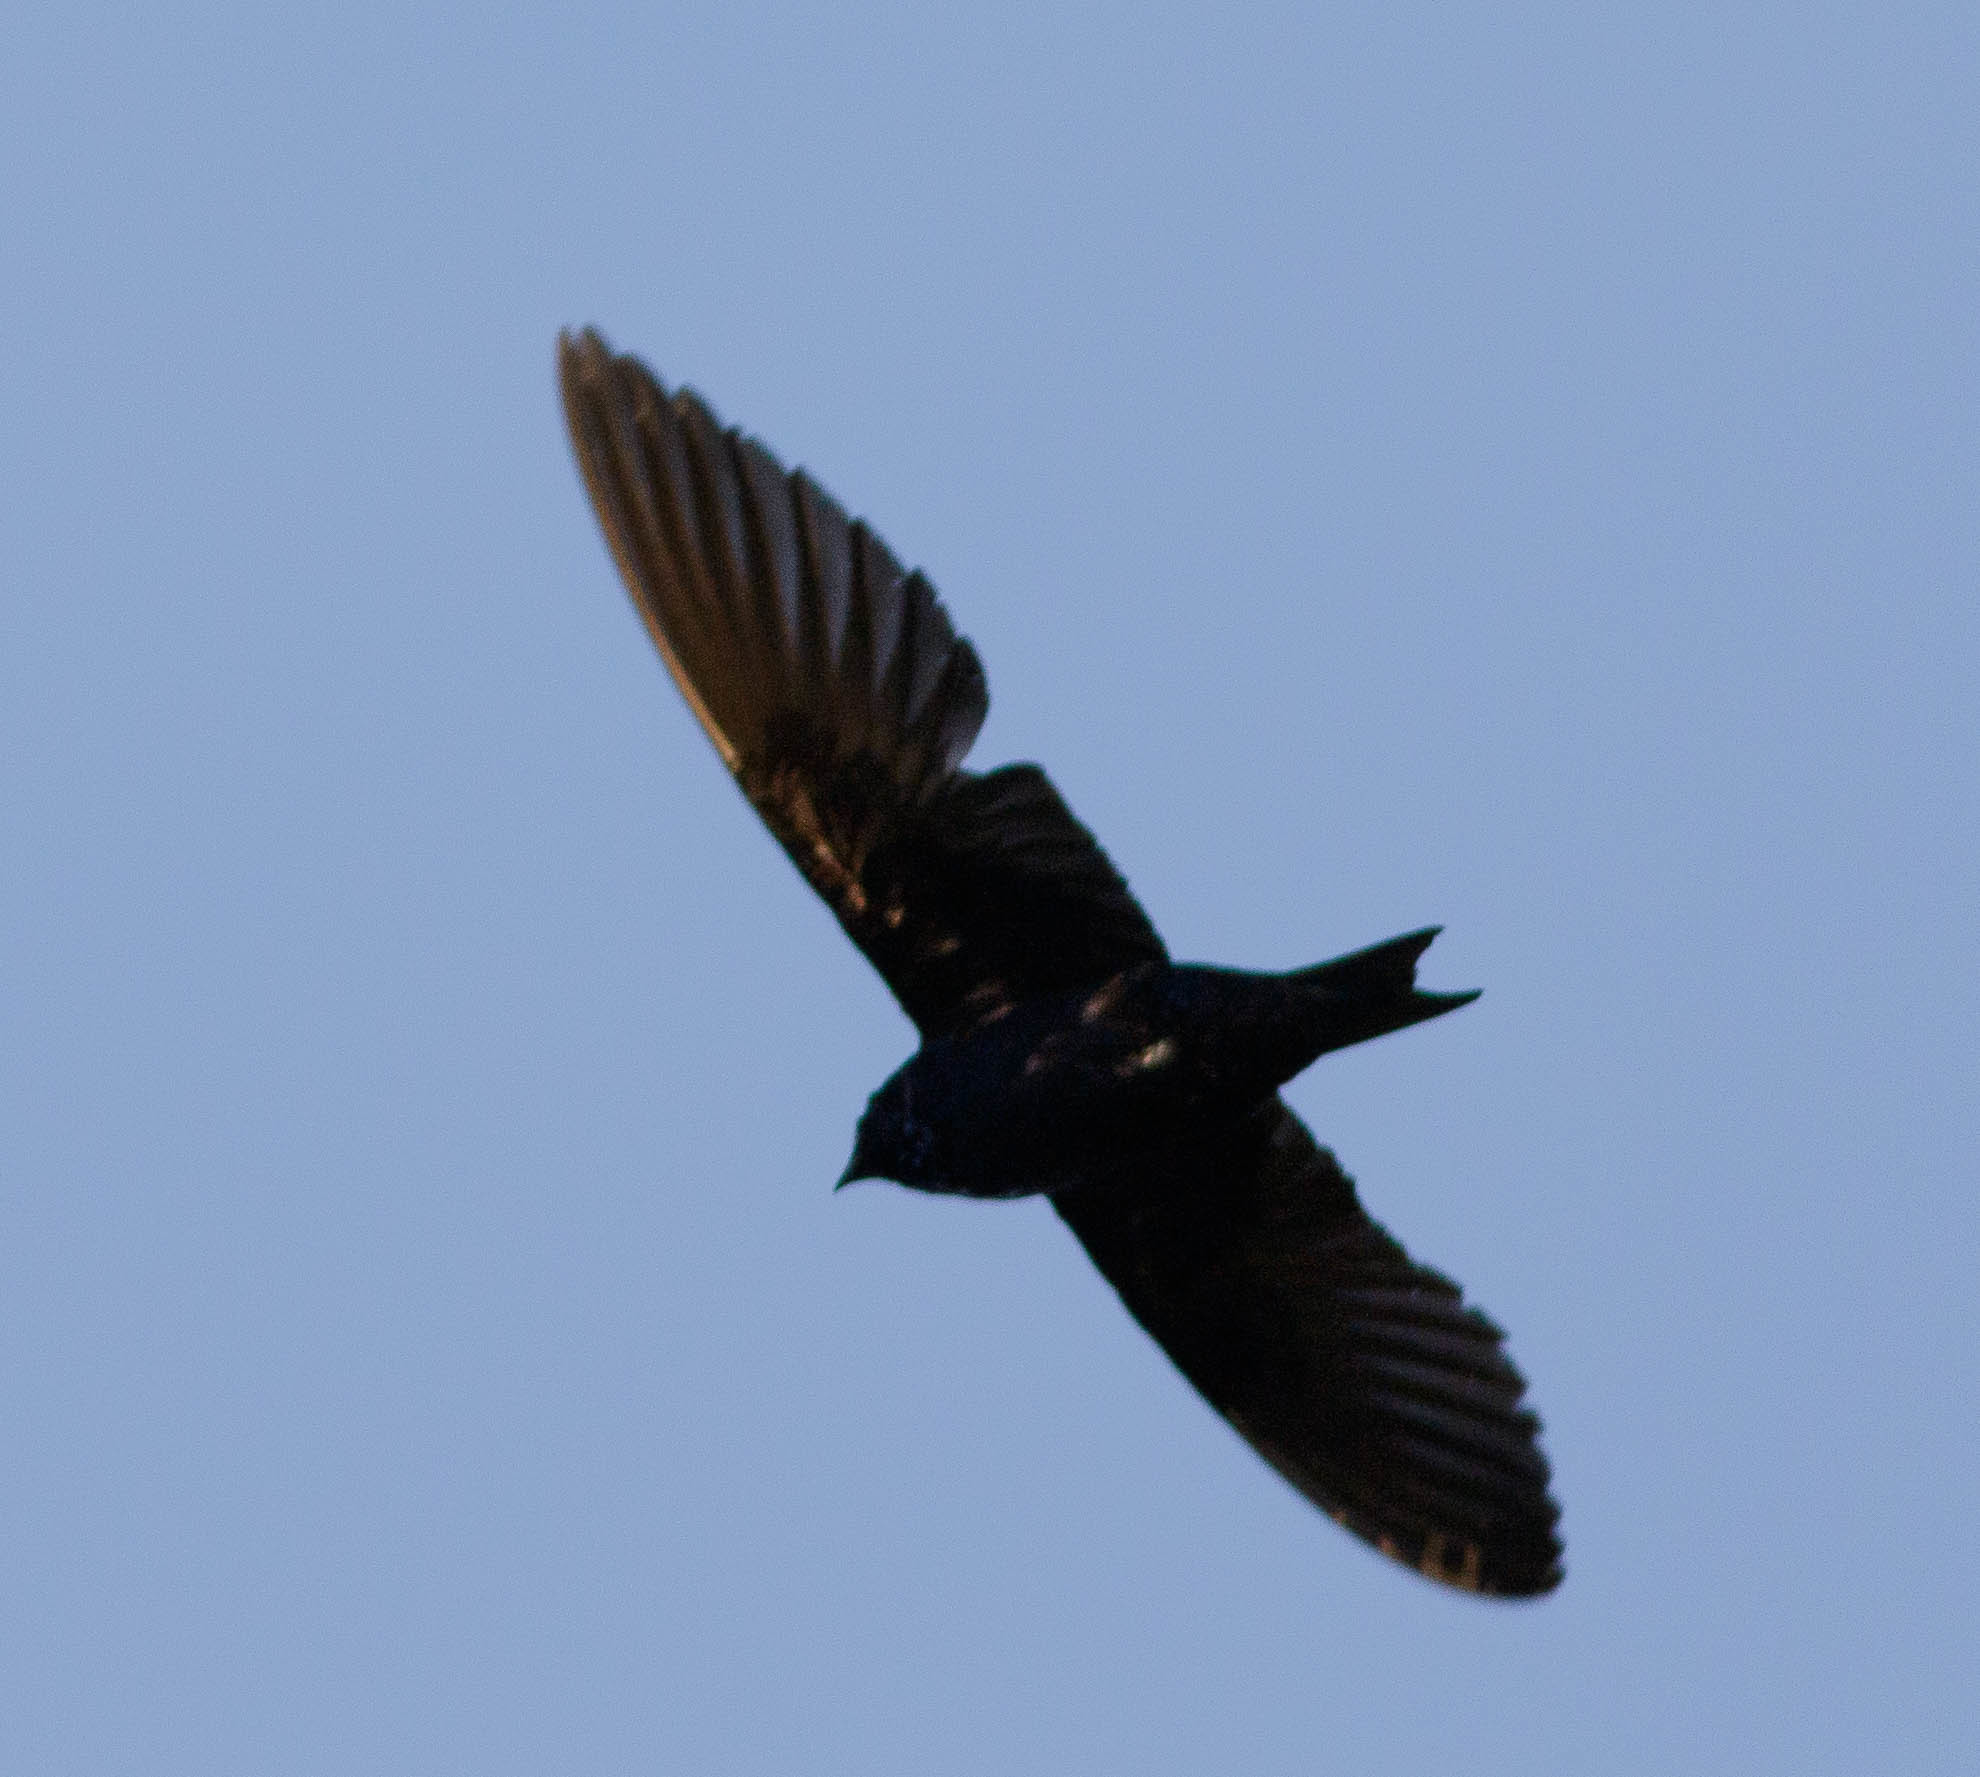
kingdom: Animalia
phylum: Chordata
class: Aves
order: Passeriformes
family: Hirundinidae
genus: Progne
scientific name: Progne subis
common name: Purple martin
